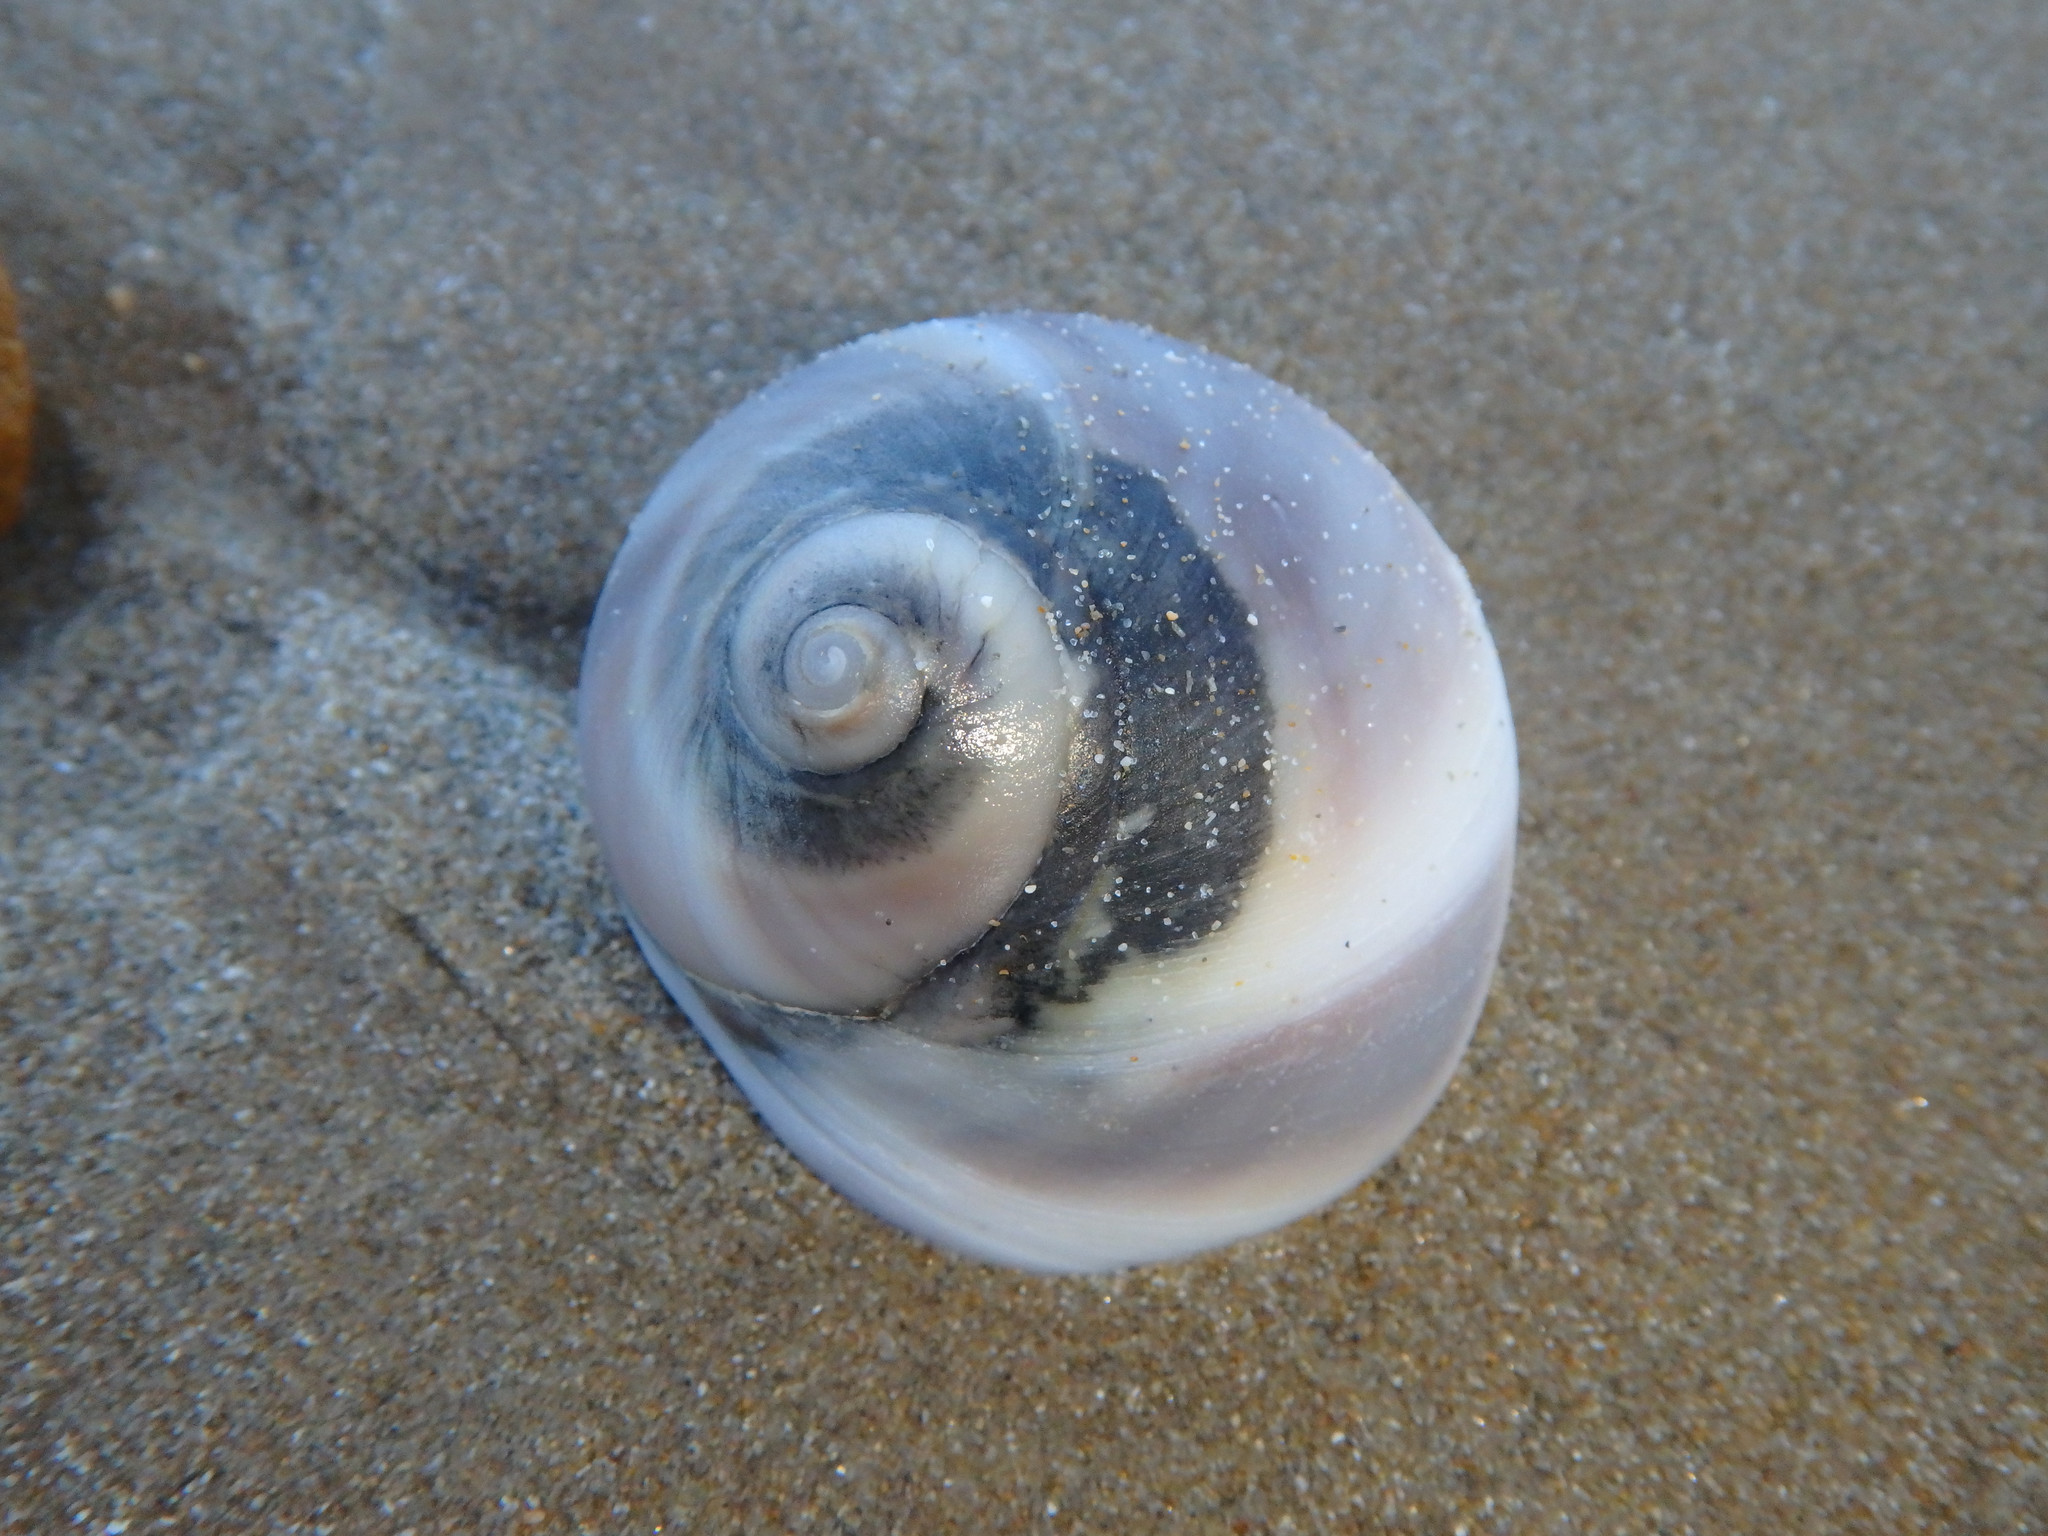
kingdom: Animalia
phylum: Mollusca
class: Gastropoda
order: Littorinimorpha
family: Naticidae
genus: Conuber
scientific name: Conuber incei
